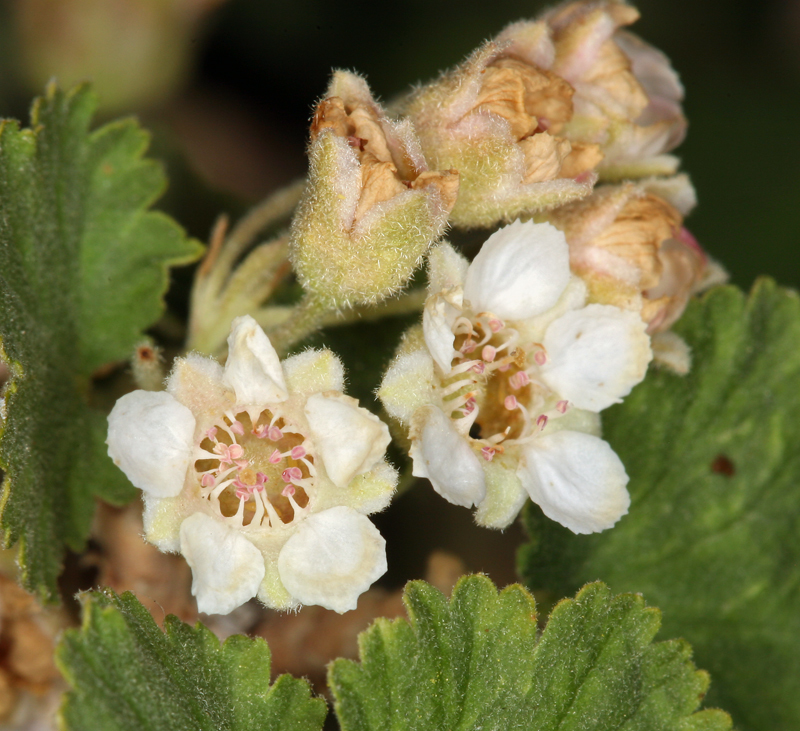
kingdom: Plantae
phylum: Tracheophyta
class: Magnoliopsida
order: Rosales
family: Rosaceae
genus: Physocarpus
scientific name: Physocarpus alternans
